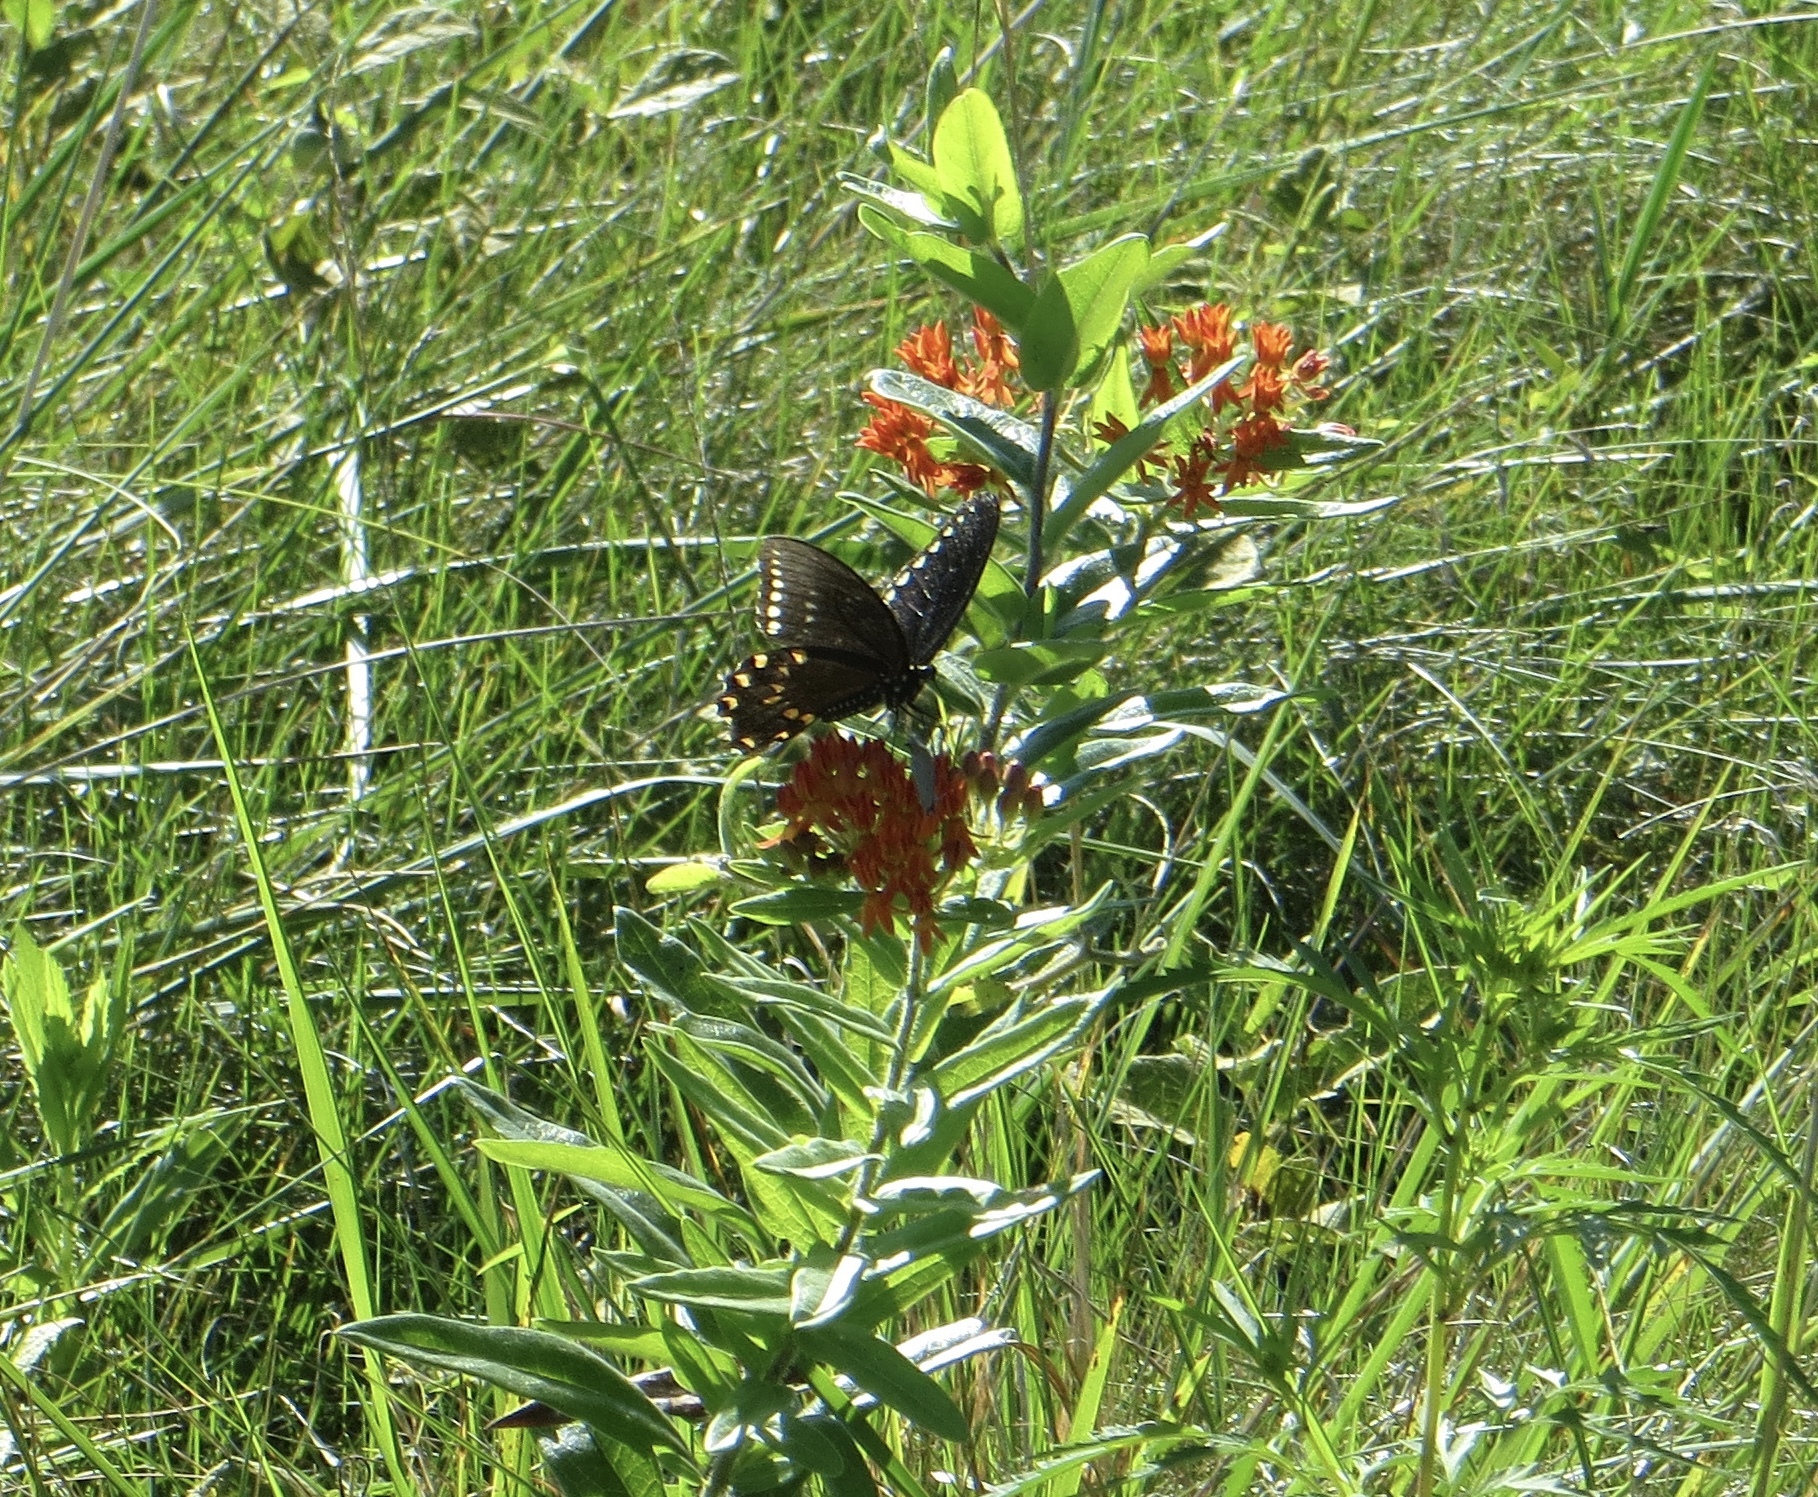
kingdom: Animalia
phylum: Arthropoda
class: Insecta
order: Lepidoptera
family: Papilionidae
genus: Papilio
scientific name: Papilio troilus
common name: Spicebush swallowtail
